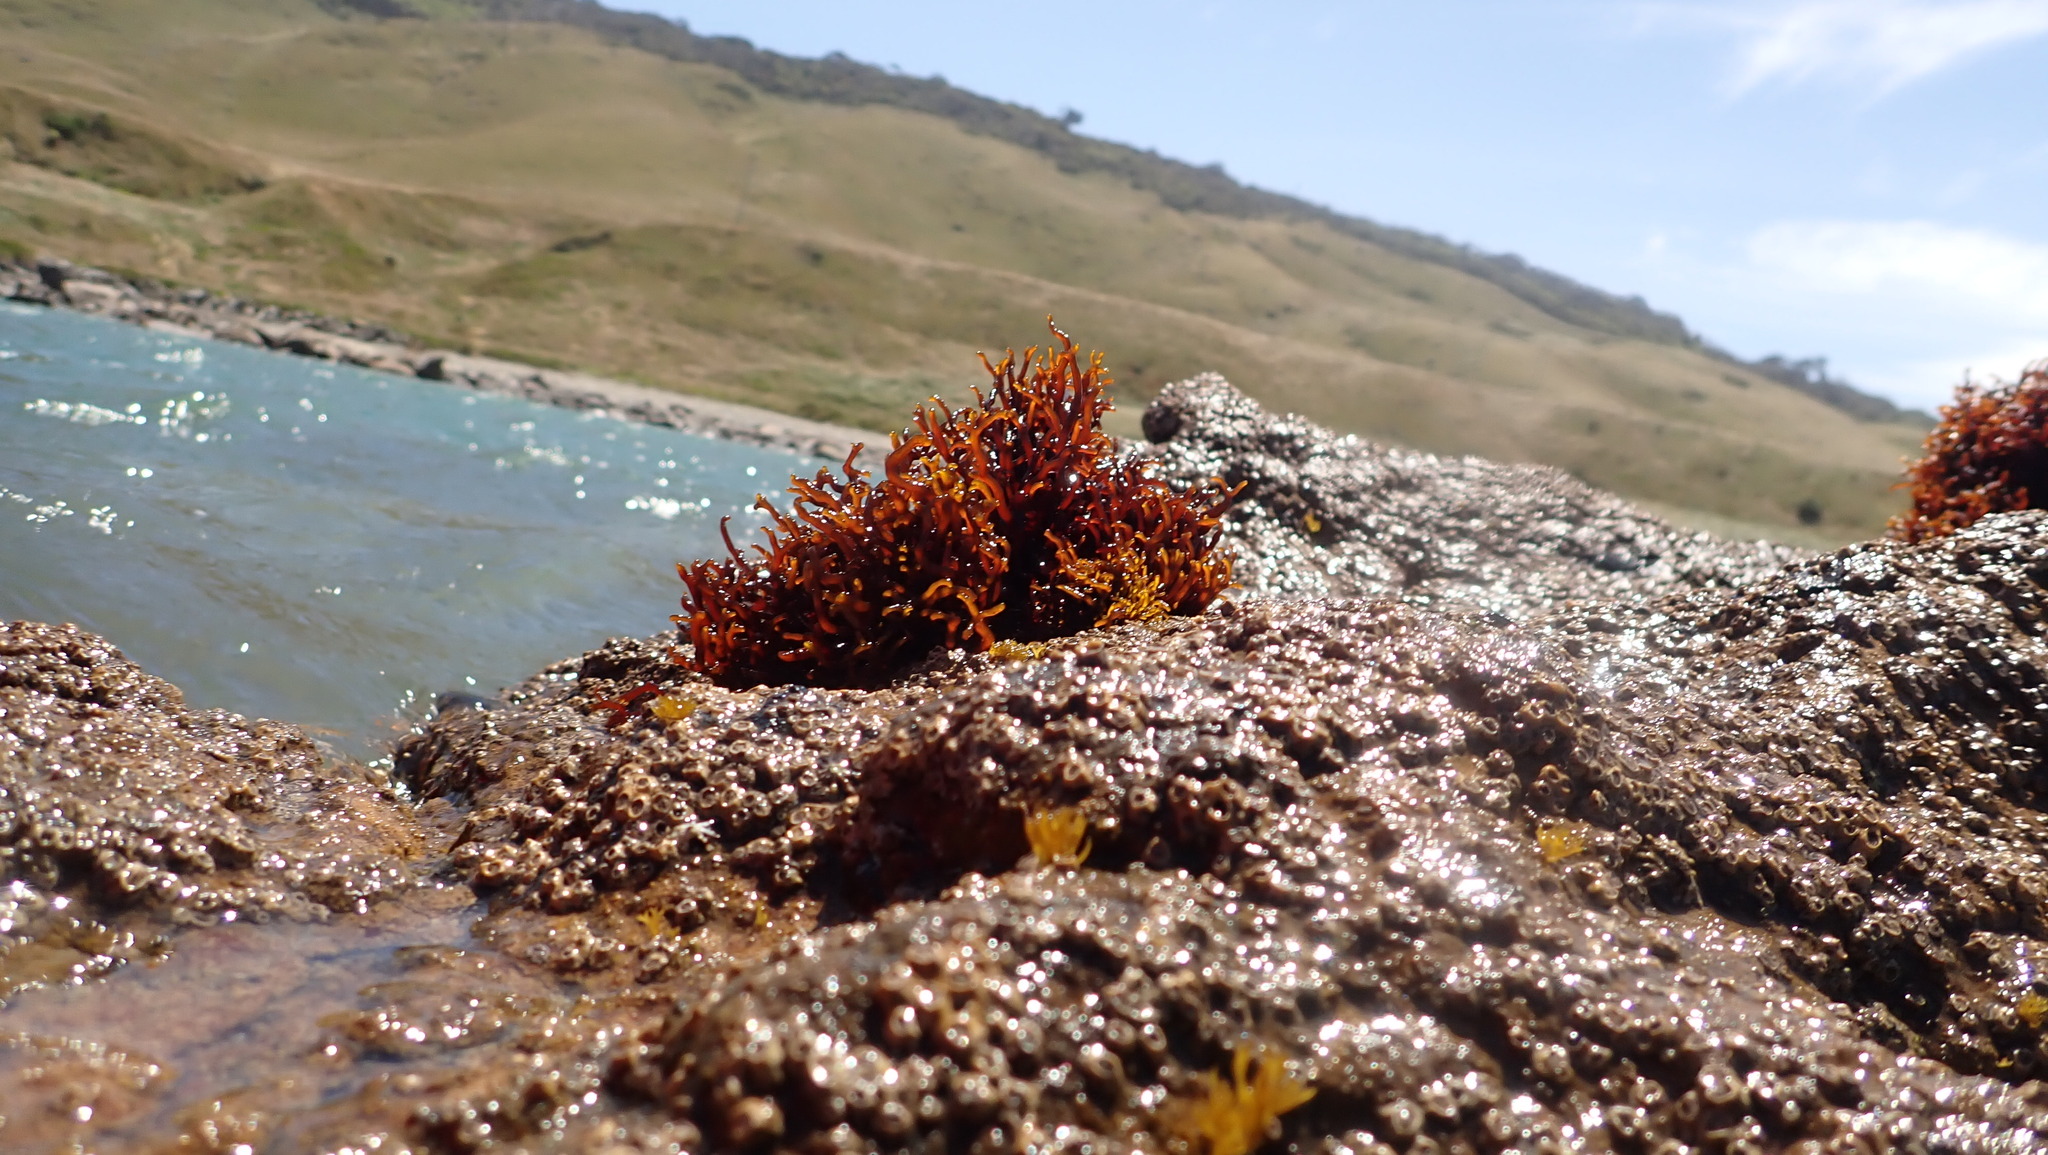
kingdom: Plantae
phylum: Rhodophyta
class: Florideophyceae
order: Hildenbrandiales
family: Hildenbrandiaceae
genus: Apophlaea
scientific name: Apophlaea lyallii
